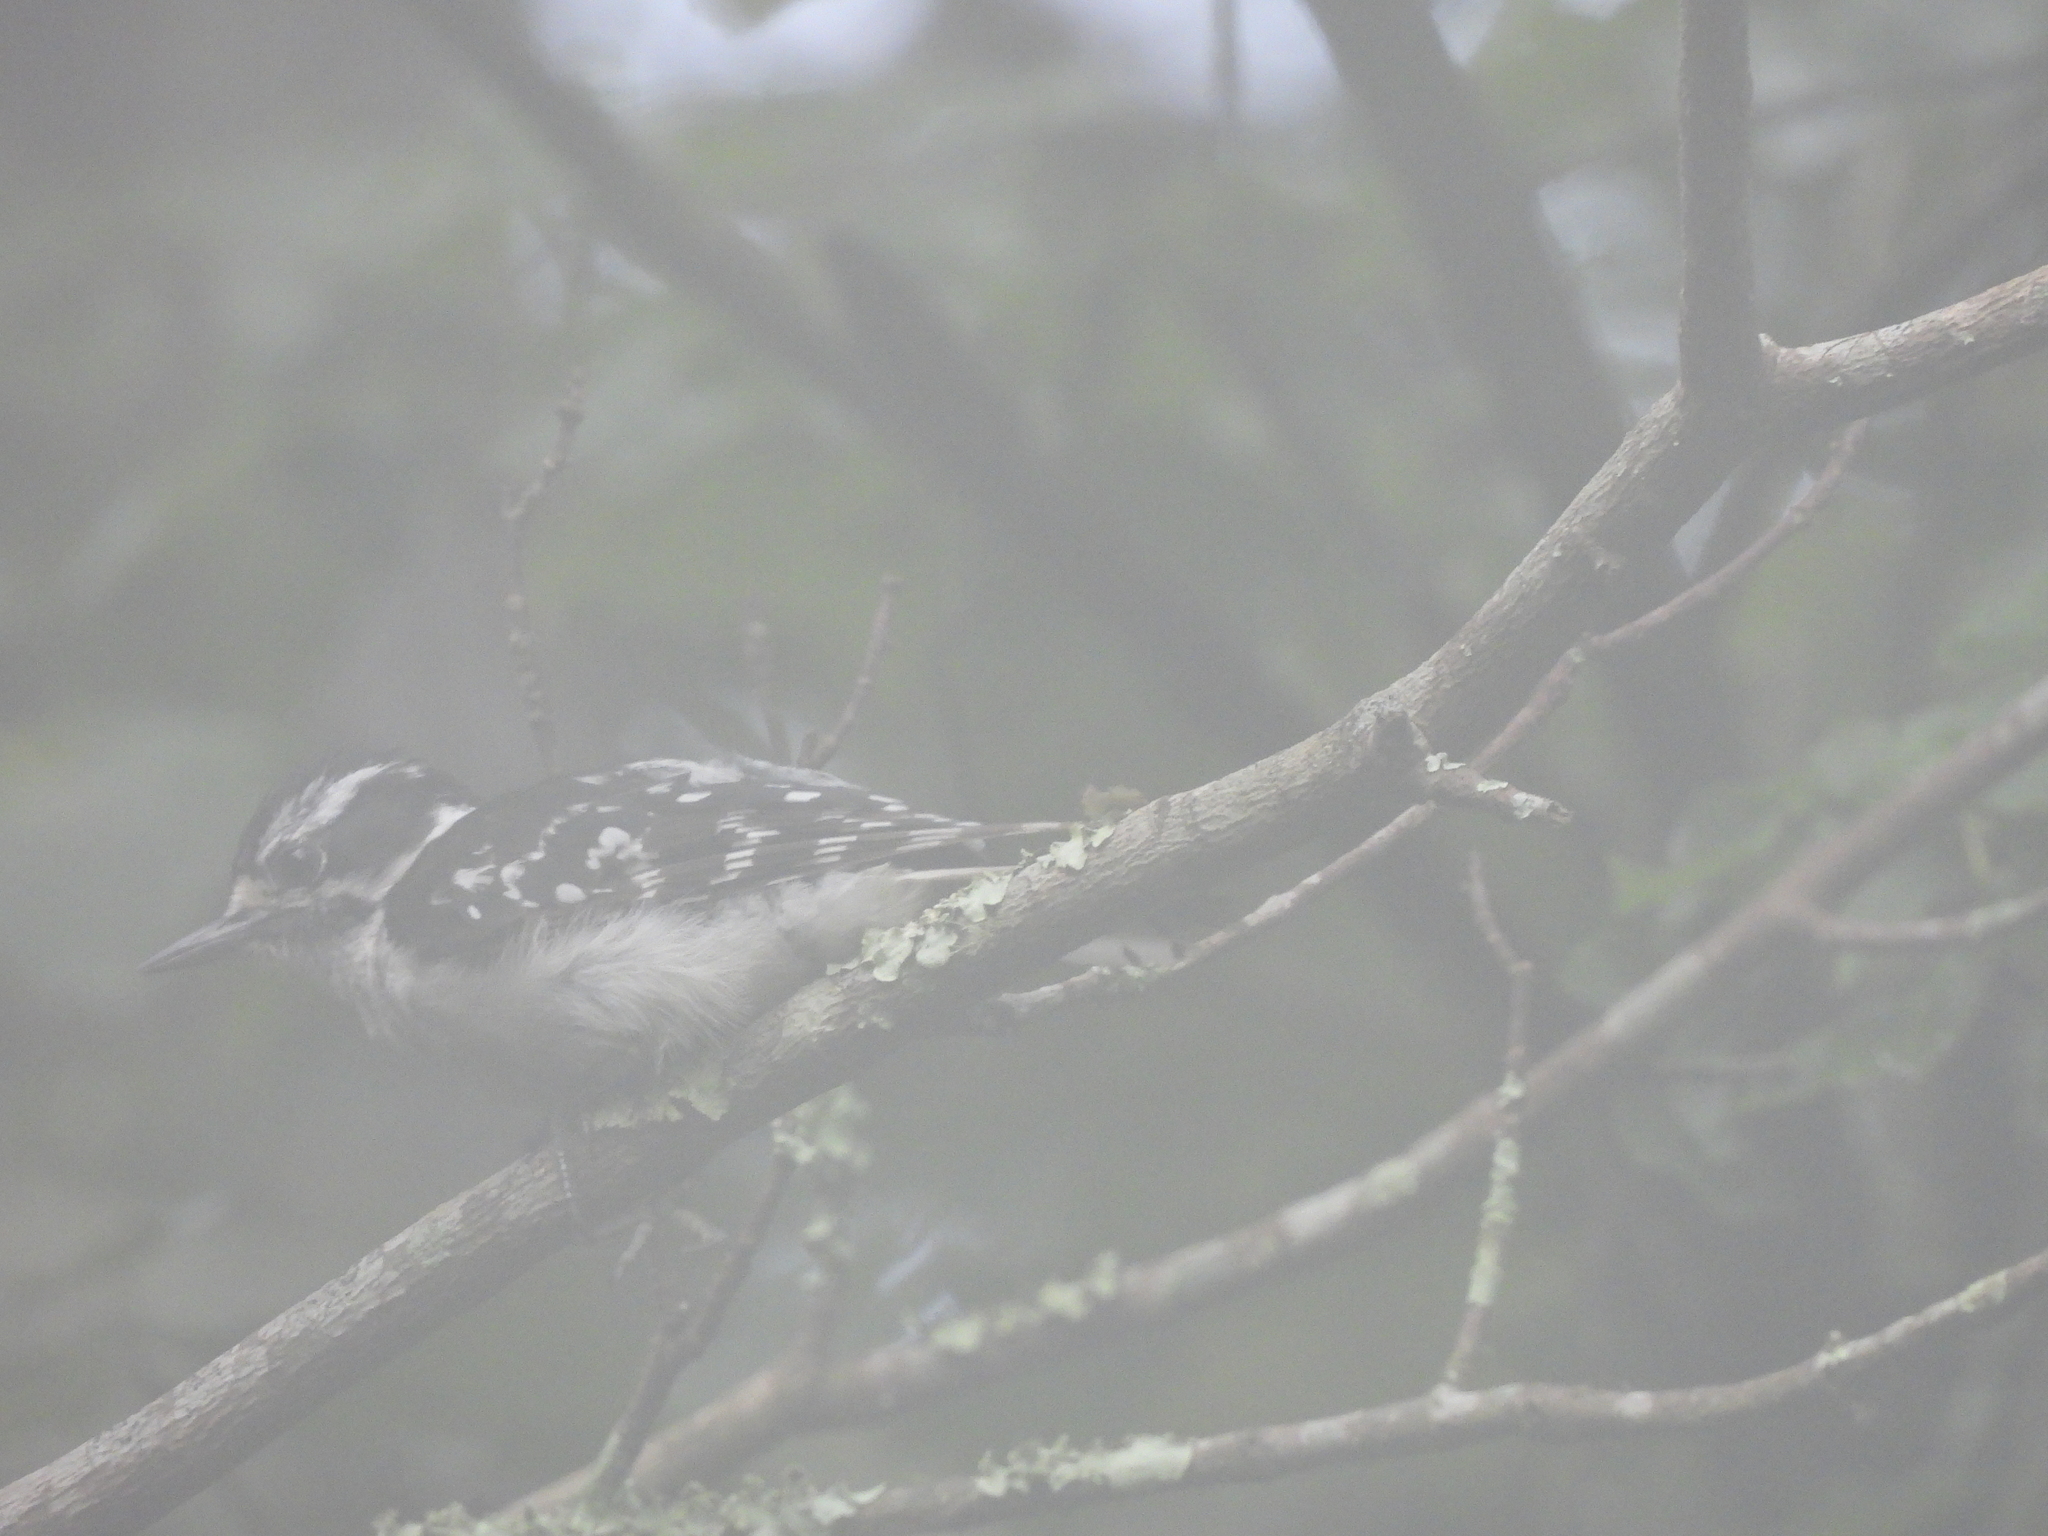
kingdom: Animalia
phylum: Chordata
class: Aves
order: Piciformes
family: Picidae
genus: Dryobates
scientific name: Dryobates pubescens
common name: Downy woodpecker
